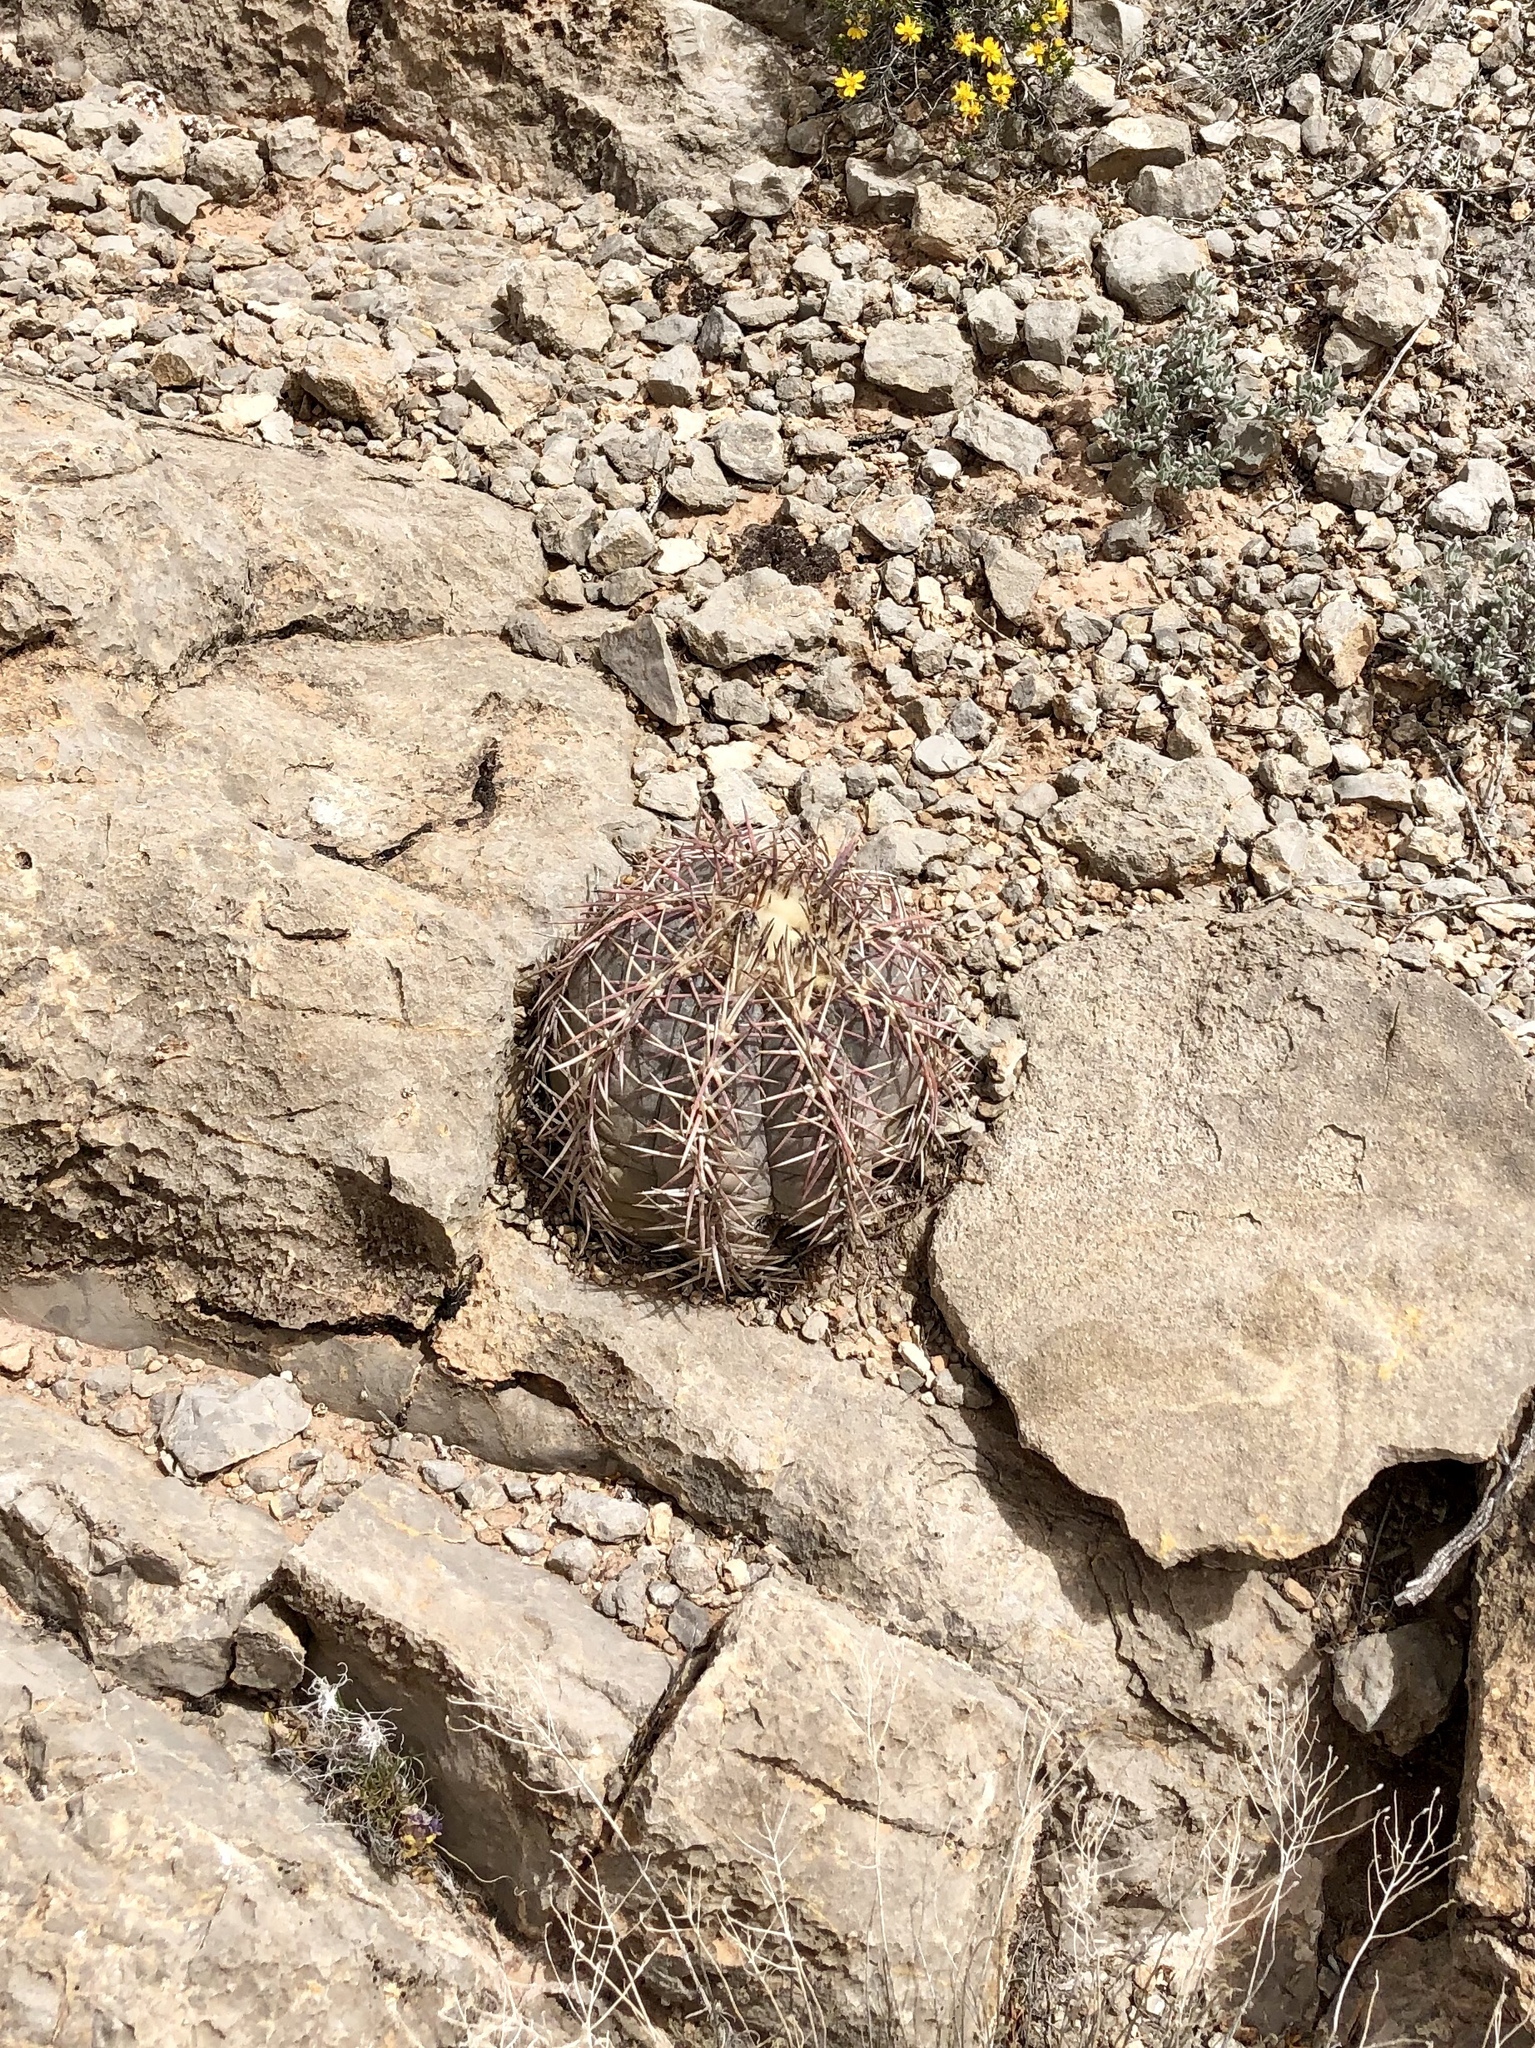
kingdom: Plantae
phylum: Tracheophyta
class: Magnoliopsida
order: Caryophyllales
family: Cactaceae
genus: Echinocactus
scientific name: Echinocactus horizonthalonius
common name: Devilshead
